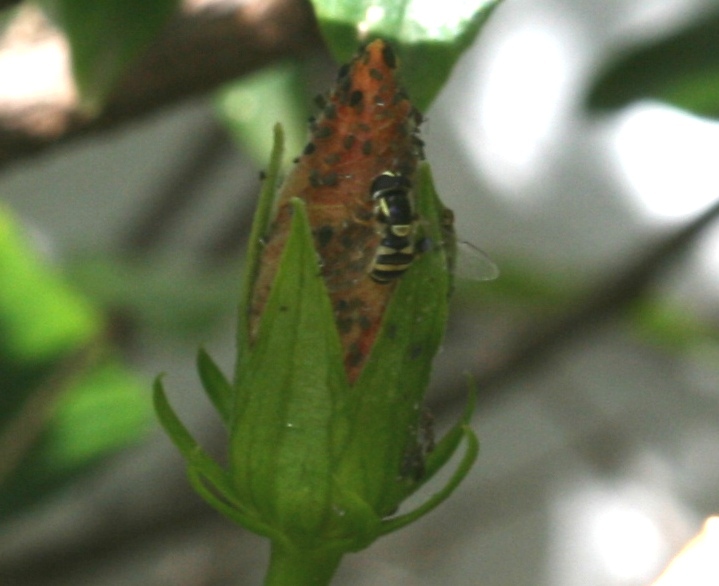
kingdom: Animalia
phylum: Arthropoda
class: Insecta
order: Diptera
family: Syrphidae
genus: Ischiodon
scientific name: Ischiodon aegyptius
